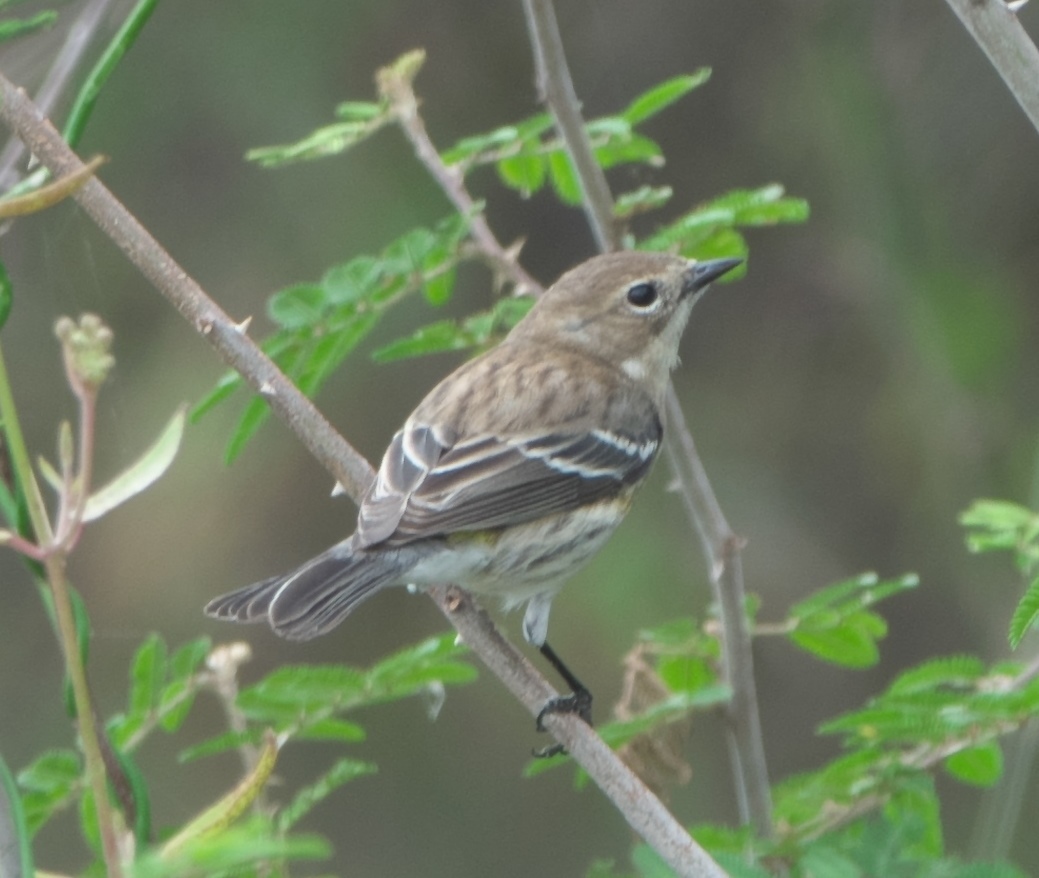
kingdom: Animalia
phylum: Chordata
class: Aves
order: Passeriformes
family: Parulidae
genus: Setophaga
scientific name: Setophaga coronata
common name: Myrtle warbler
